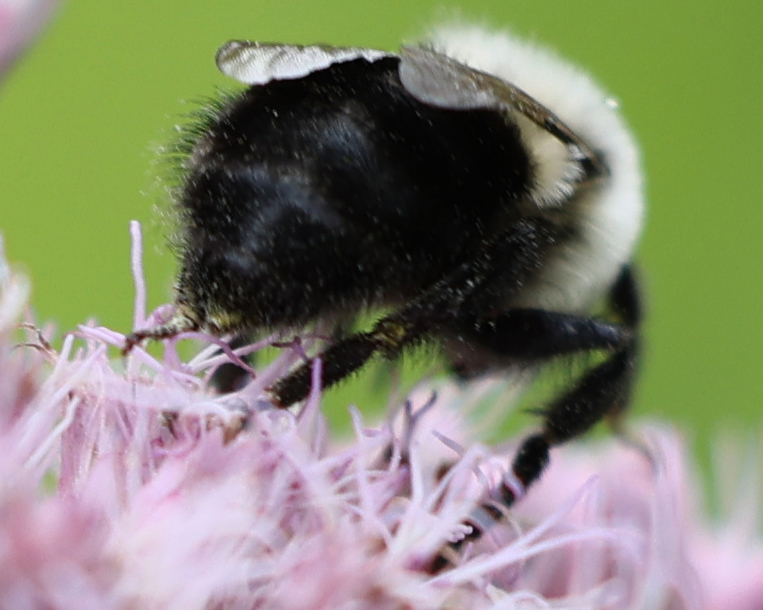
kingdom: Animalia
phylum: Arthropoda
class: Insecta
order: Hymenoptera
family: Apidae
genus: Bombus
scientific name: Bombus impatiens
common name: Common eastern bumble bee
